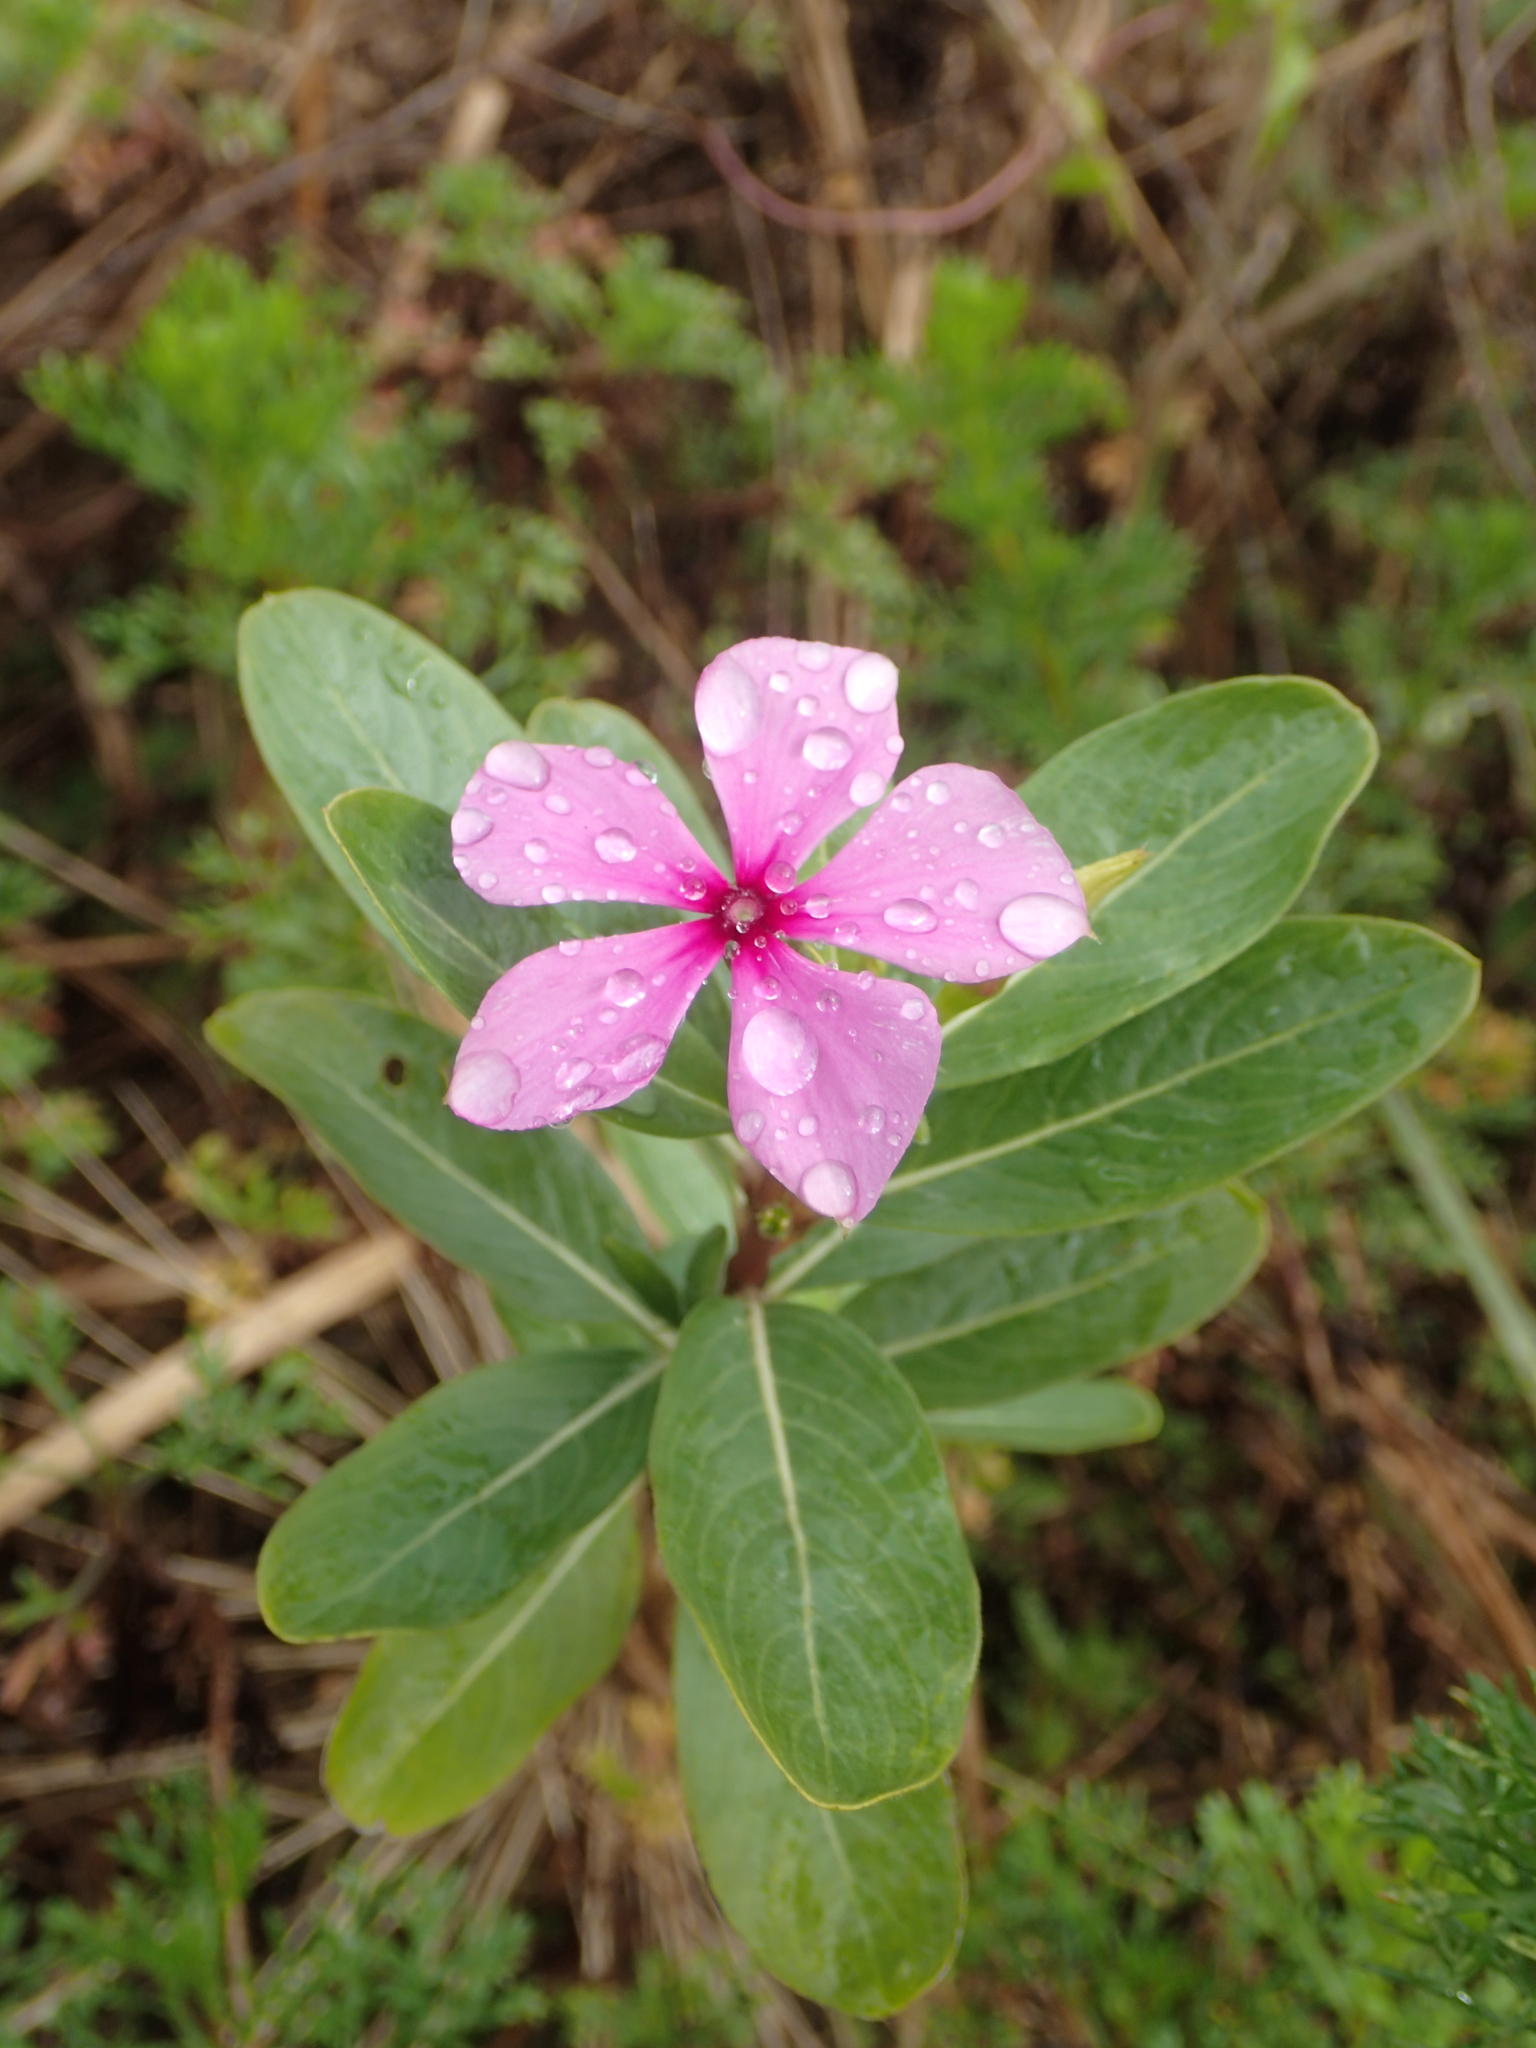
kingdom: Plantae
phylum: Tracheophyta
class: Magnoliopsida
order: Gentianales
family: Apocynaceae
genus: Catharanthus
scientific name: Catharanthus roseus
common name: Madagascar periwinkle
